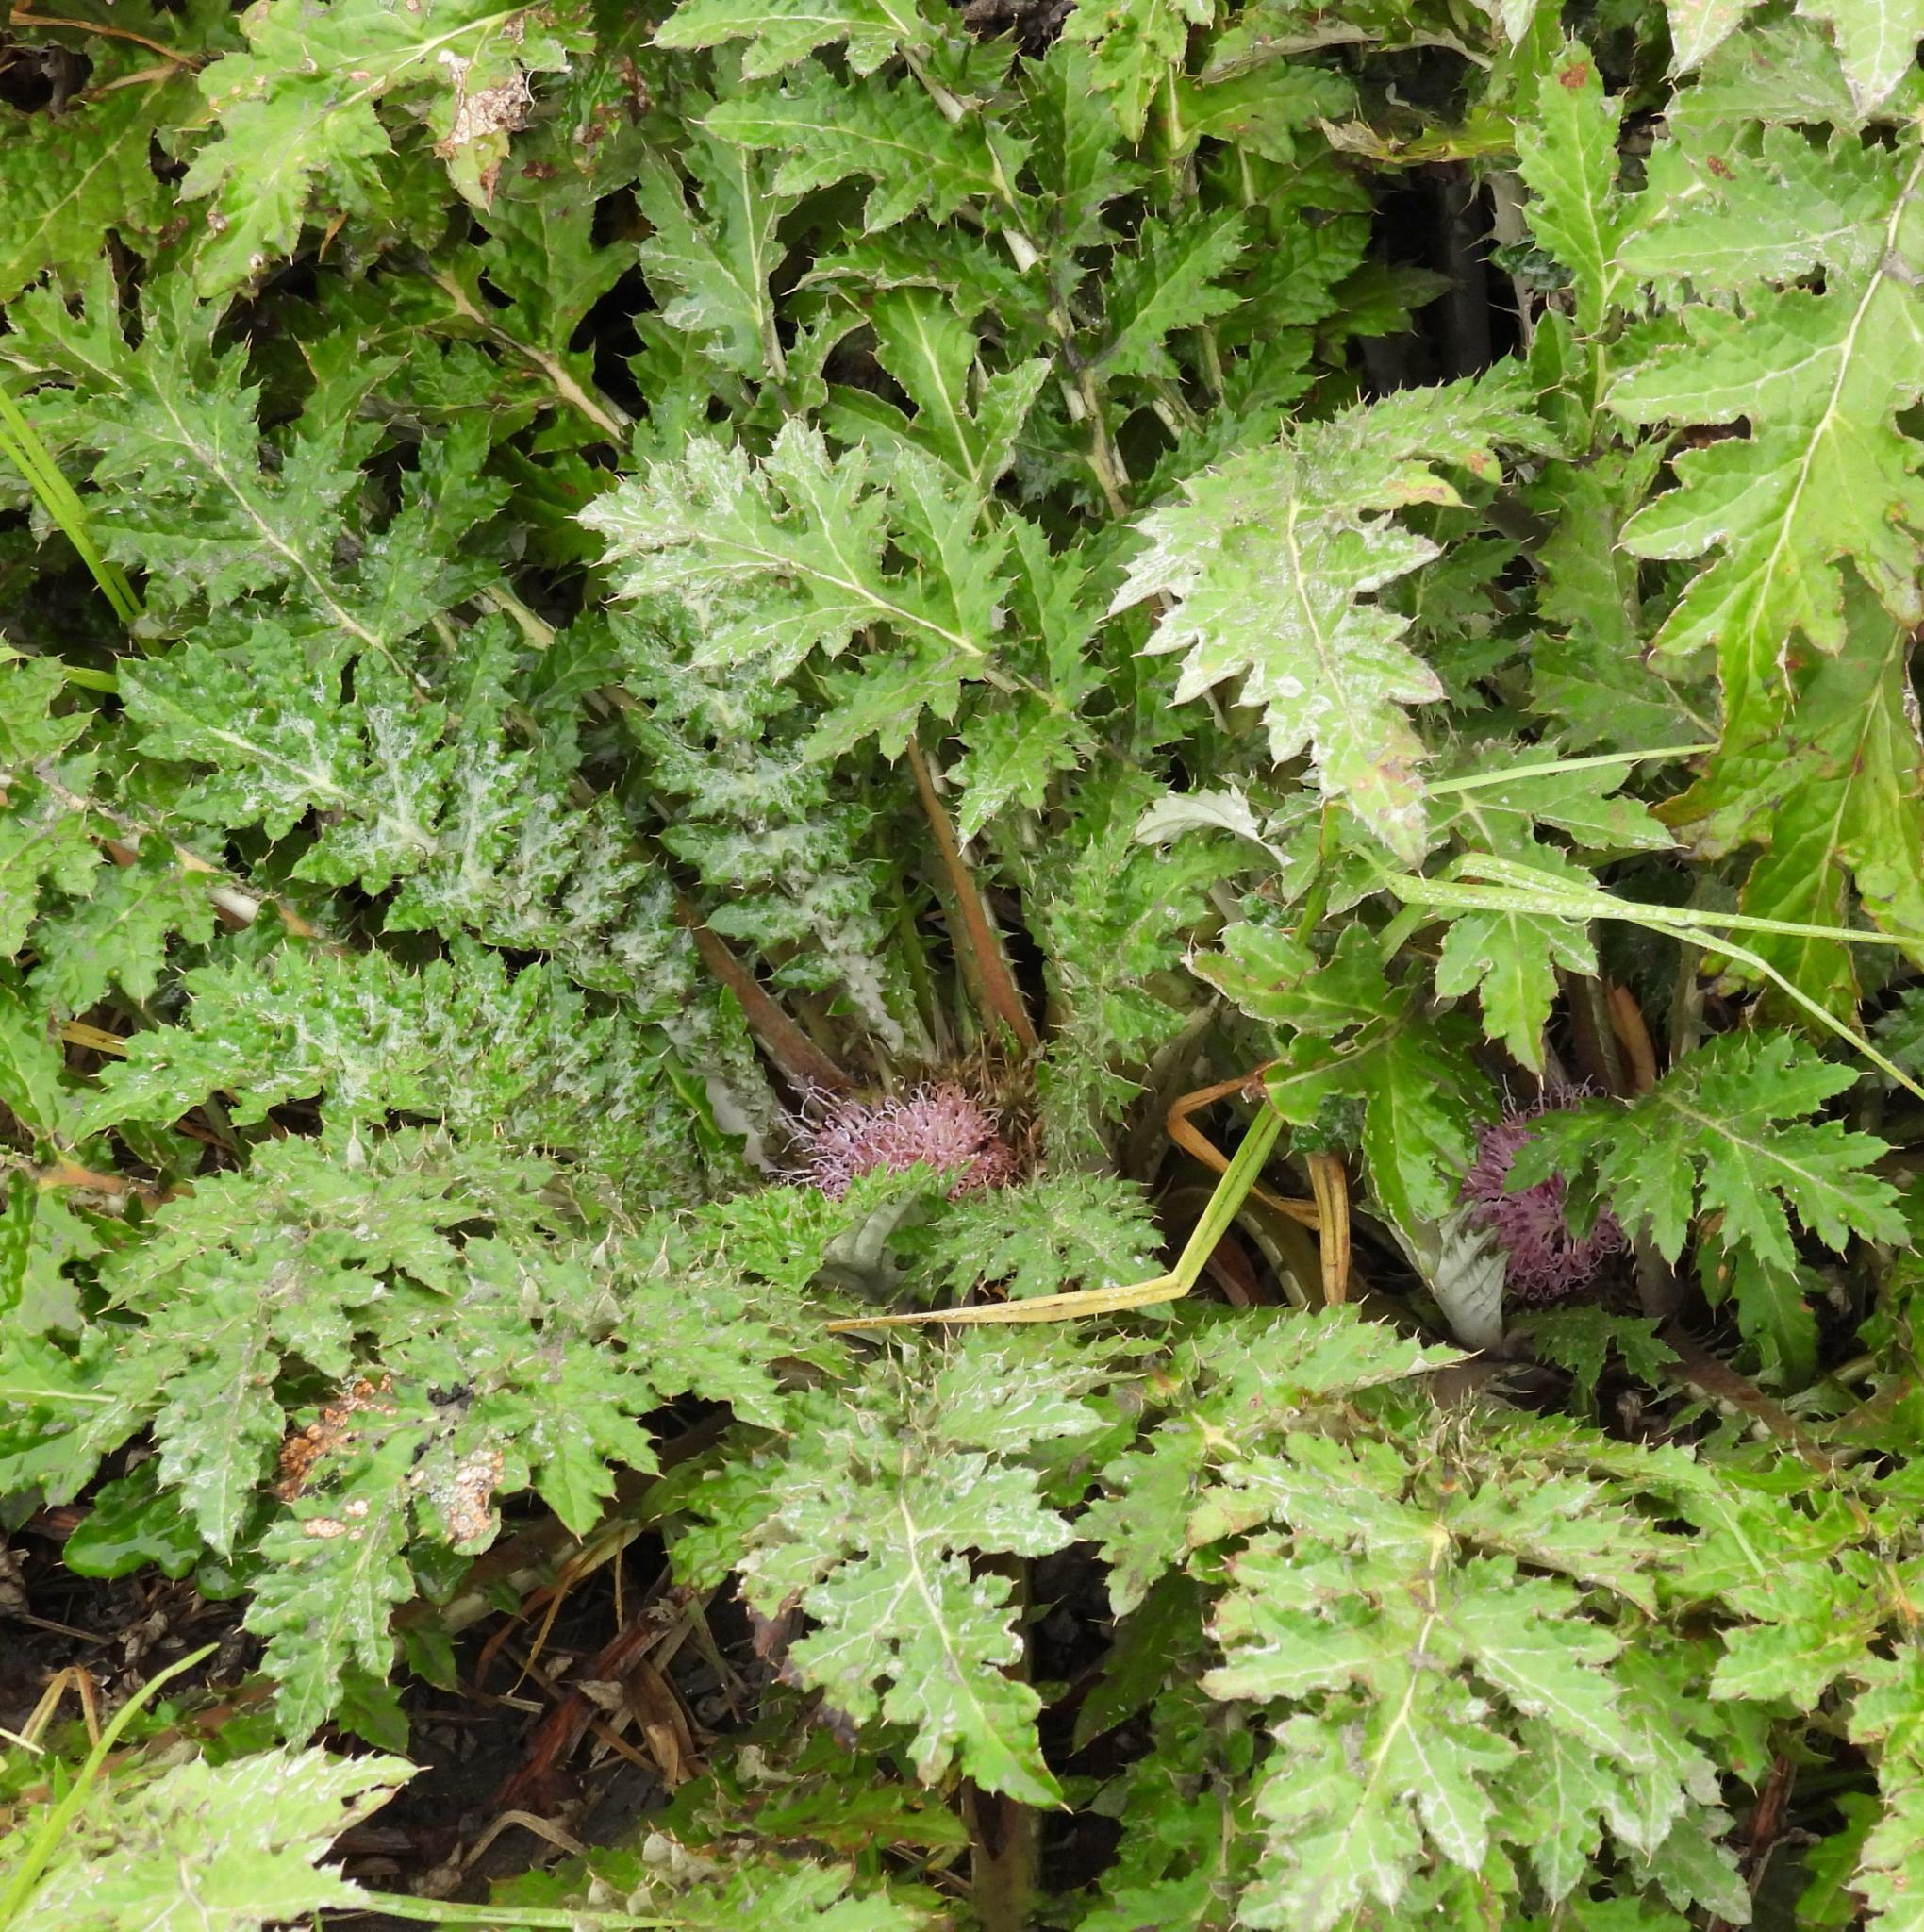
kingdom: Plantae
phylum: Tracheophyta
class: Magnoliopsida
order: Asterales
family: Asteraceae
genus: Platycarpha
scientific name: Platycarpha glomerata
